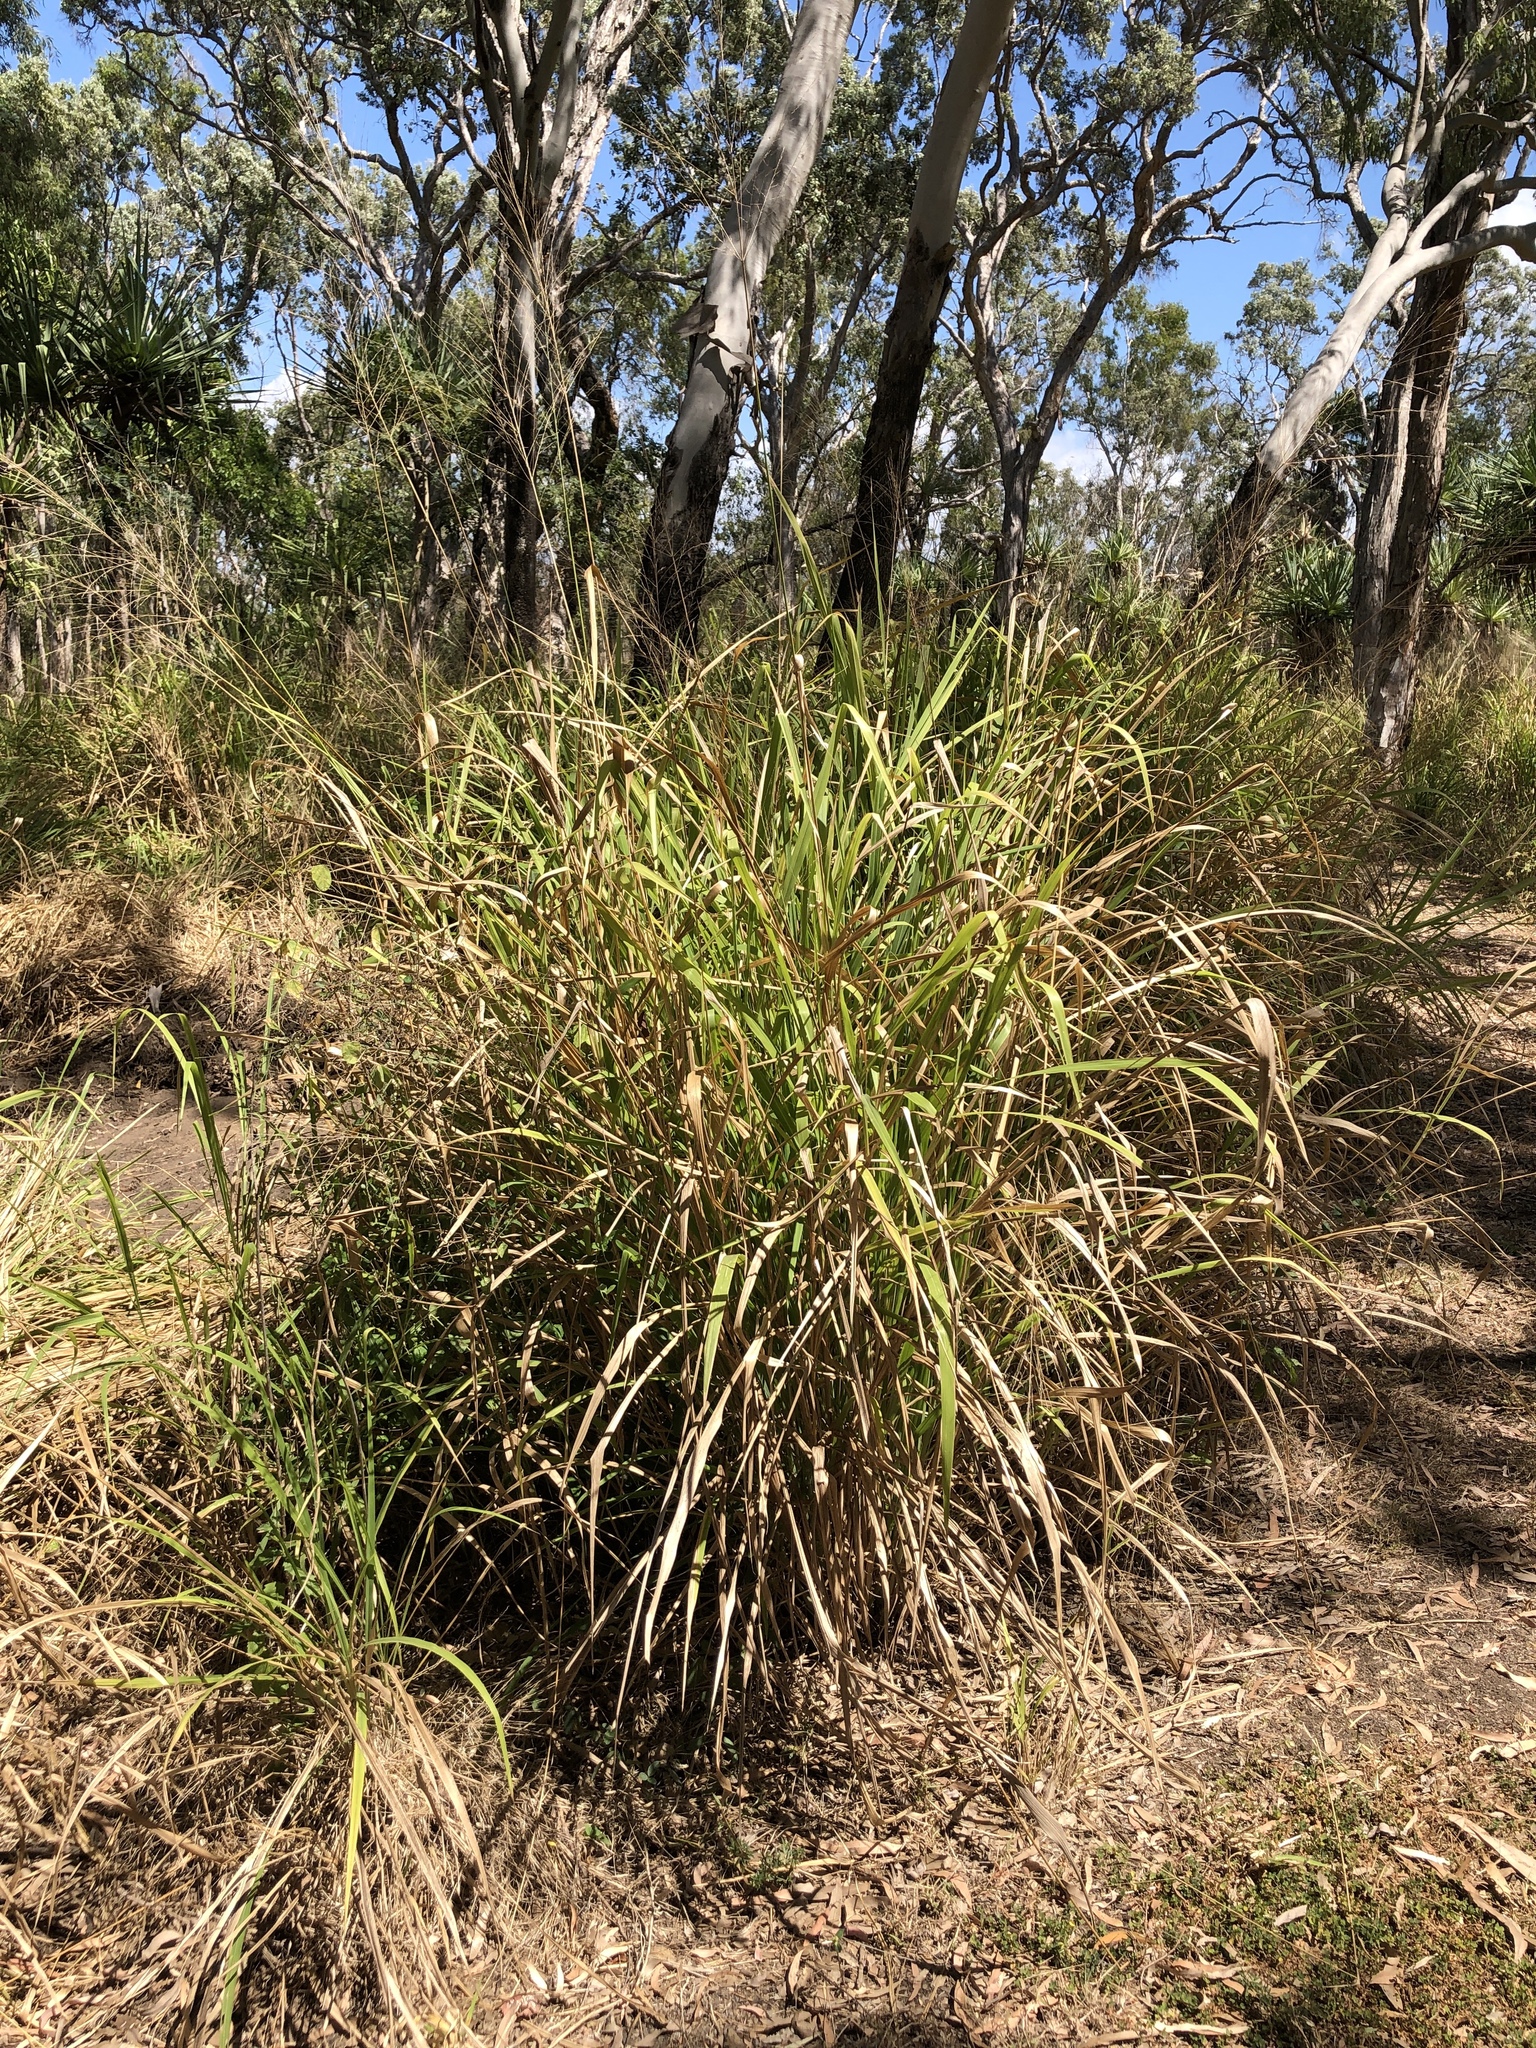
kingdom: Plantae
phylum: Tracheophyta
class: Liliopsida
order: Poales
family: Poaceae
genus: Megathyrsus
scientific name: Megathyrsus maximus
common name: Guineagrass
